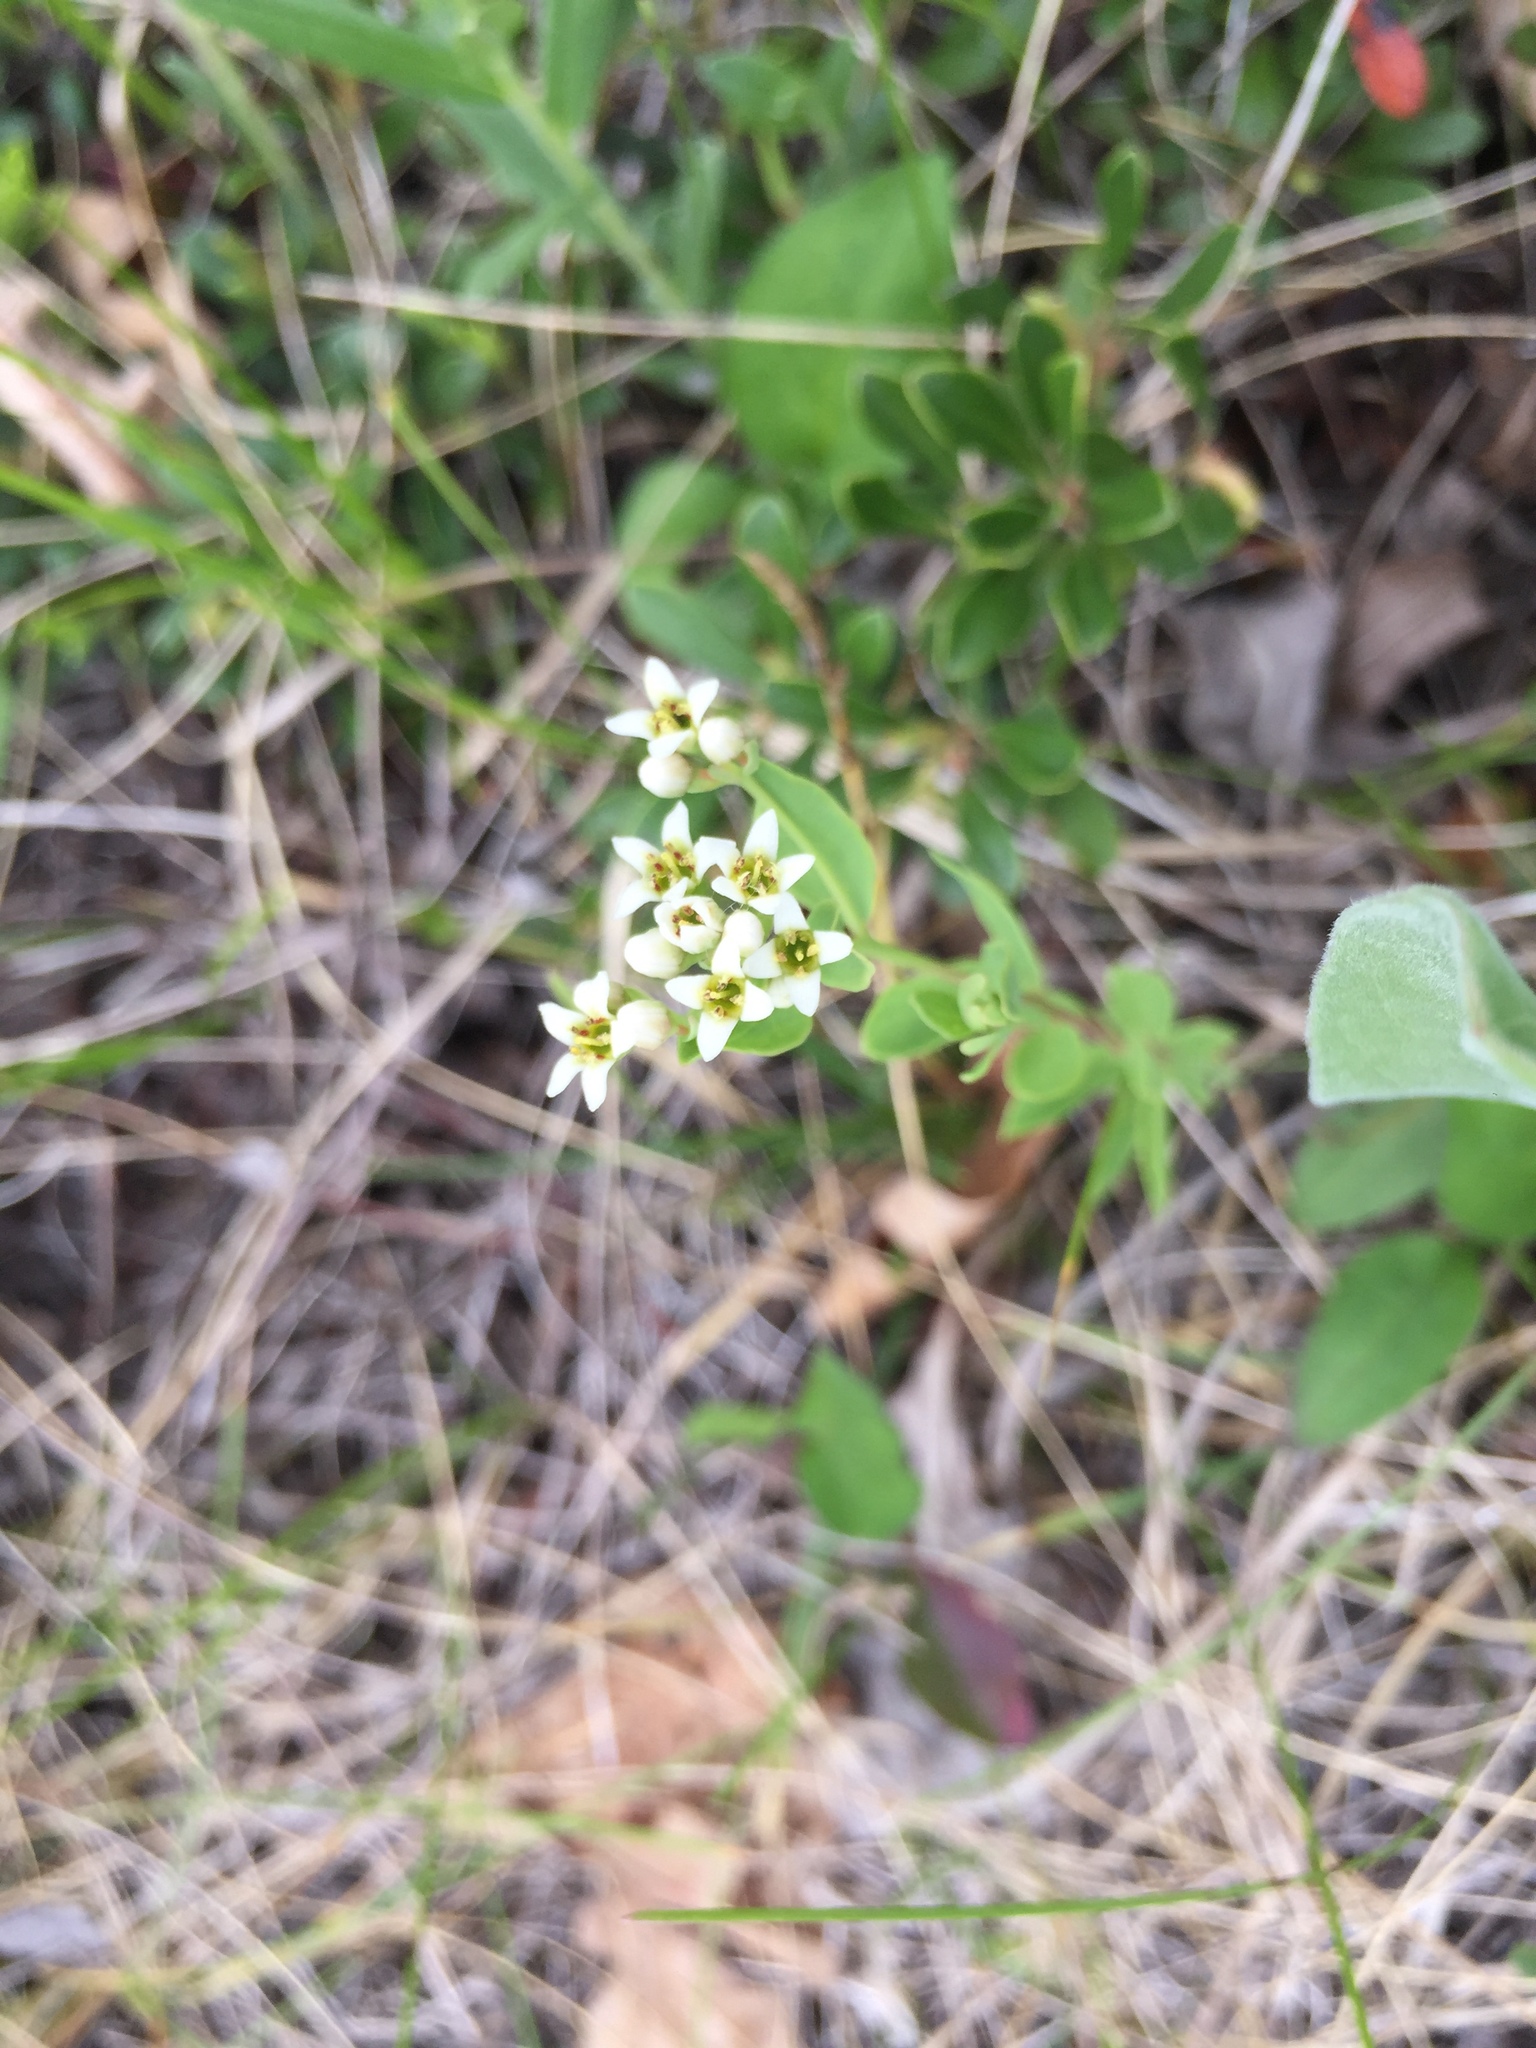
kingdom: Plantae
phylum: Tracheophyta
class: Magnoliopsida
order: Santalales
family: Comandraceae
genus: Comandra
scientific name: Comandra umbellata
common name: Bastard toadflax
